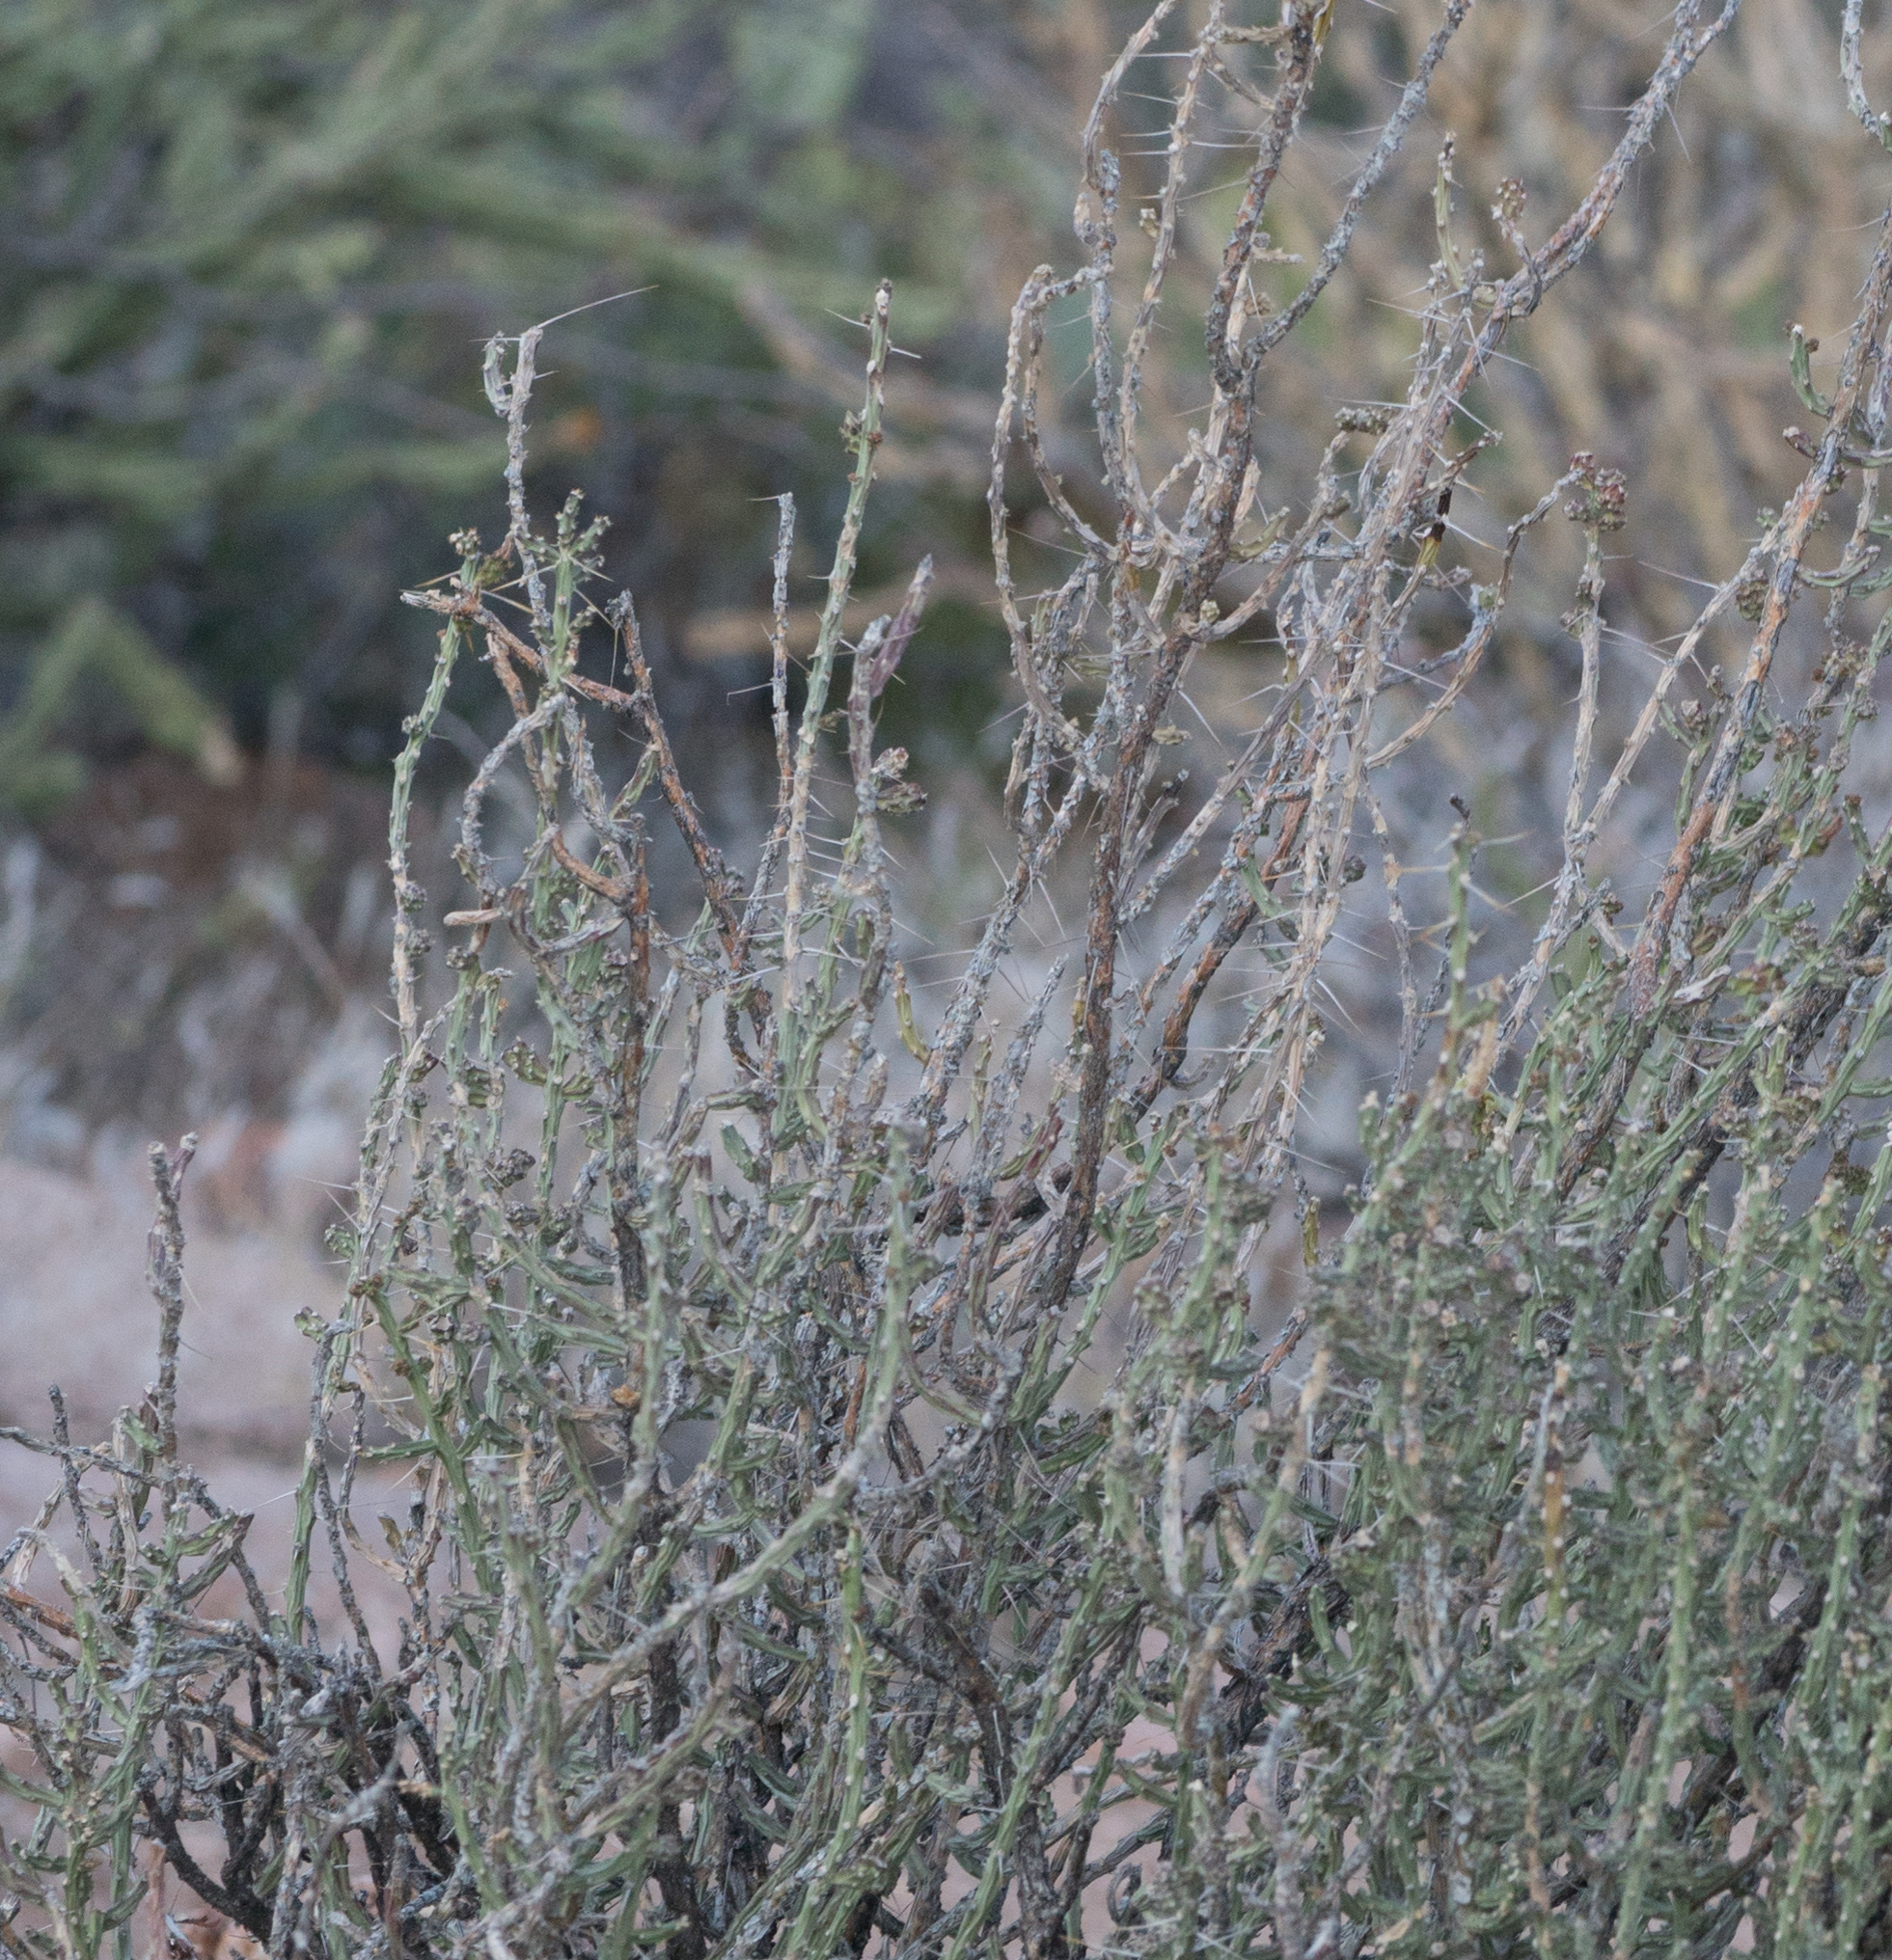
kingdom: Plantae
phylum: Tracheophyta
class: Magnoliopsida
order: Caryophyllales
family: Cactaceae
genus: Cylindropuntia
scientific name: Cylindropuntia leptocaulis
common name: Christmas cactus
